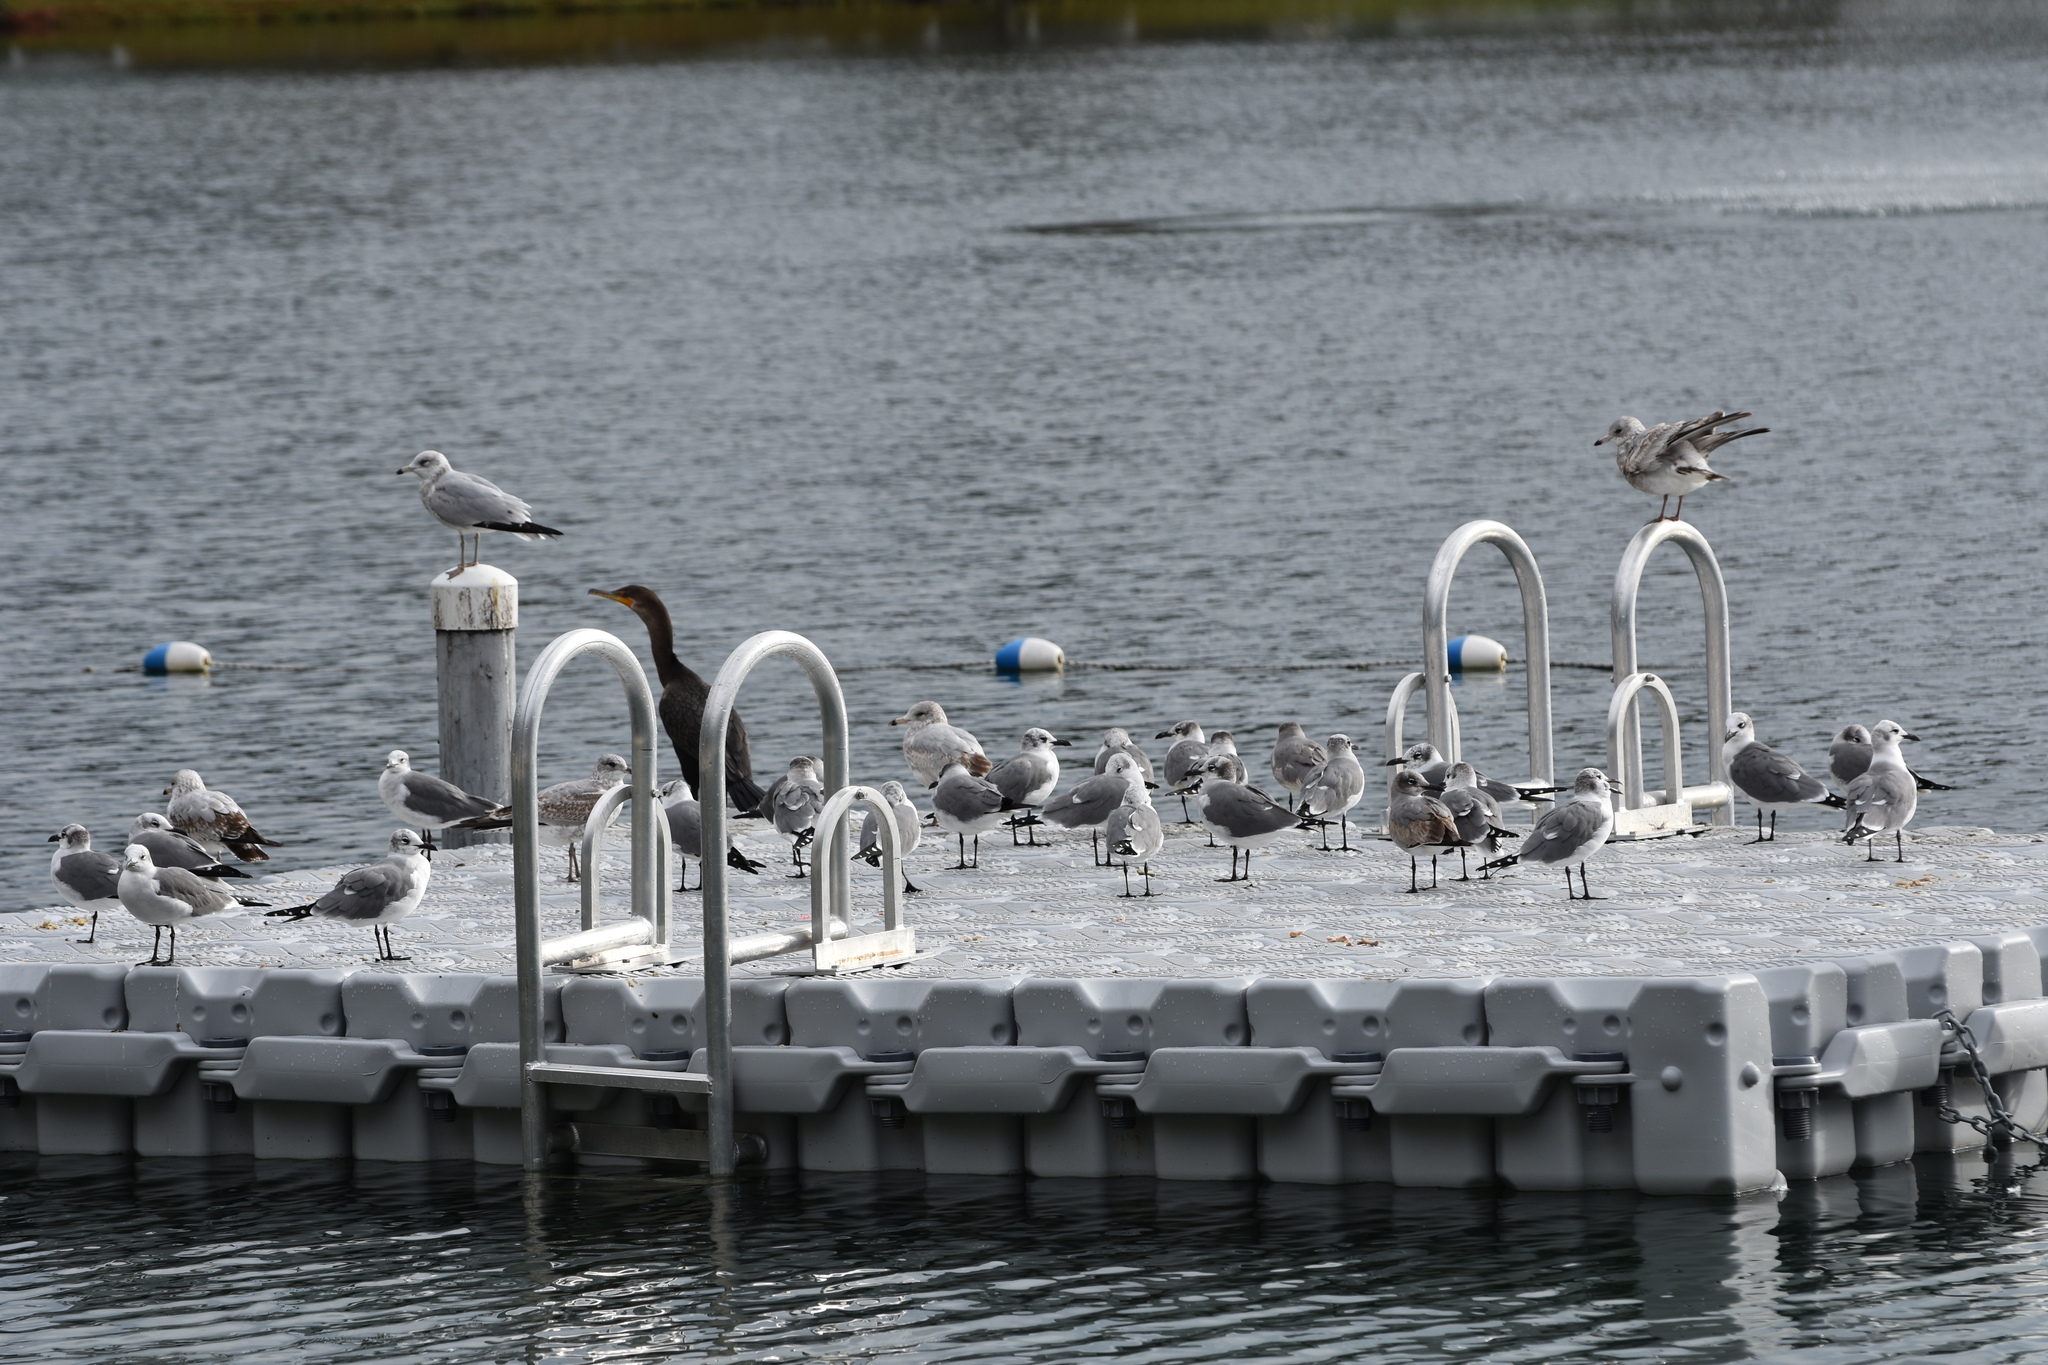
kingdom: Animalia
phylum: Chordata
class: Aves
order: Charadriiformes
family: Laridae
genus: Larus
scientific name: Larus delawarensis
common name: Ring-billed gull
